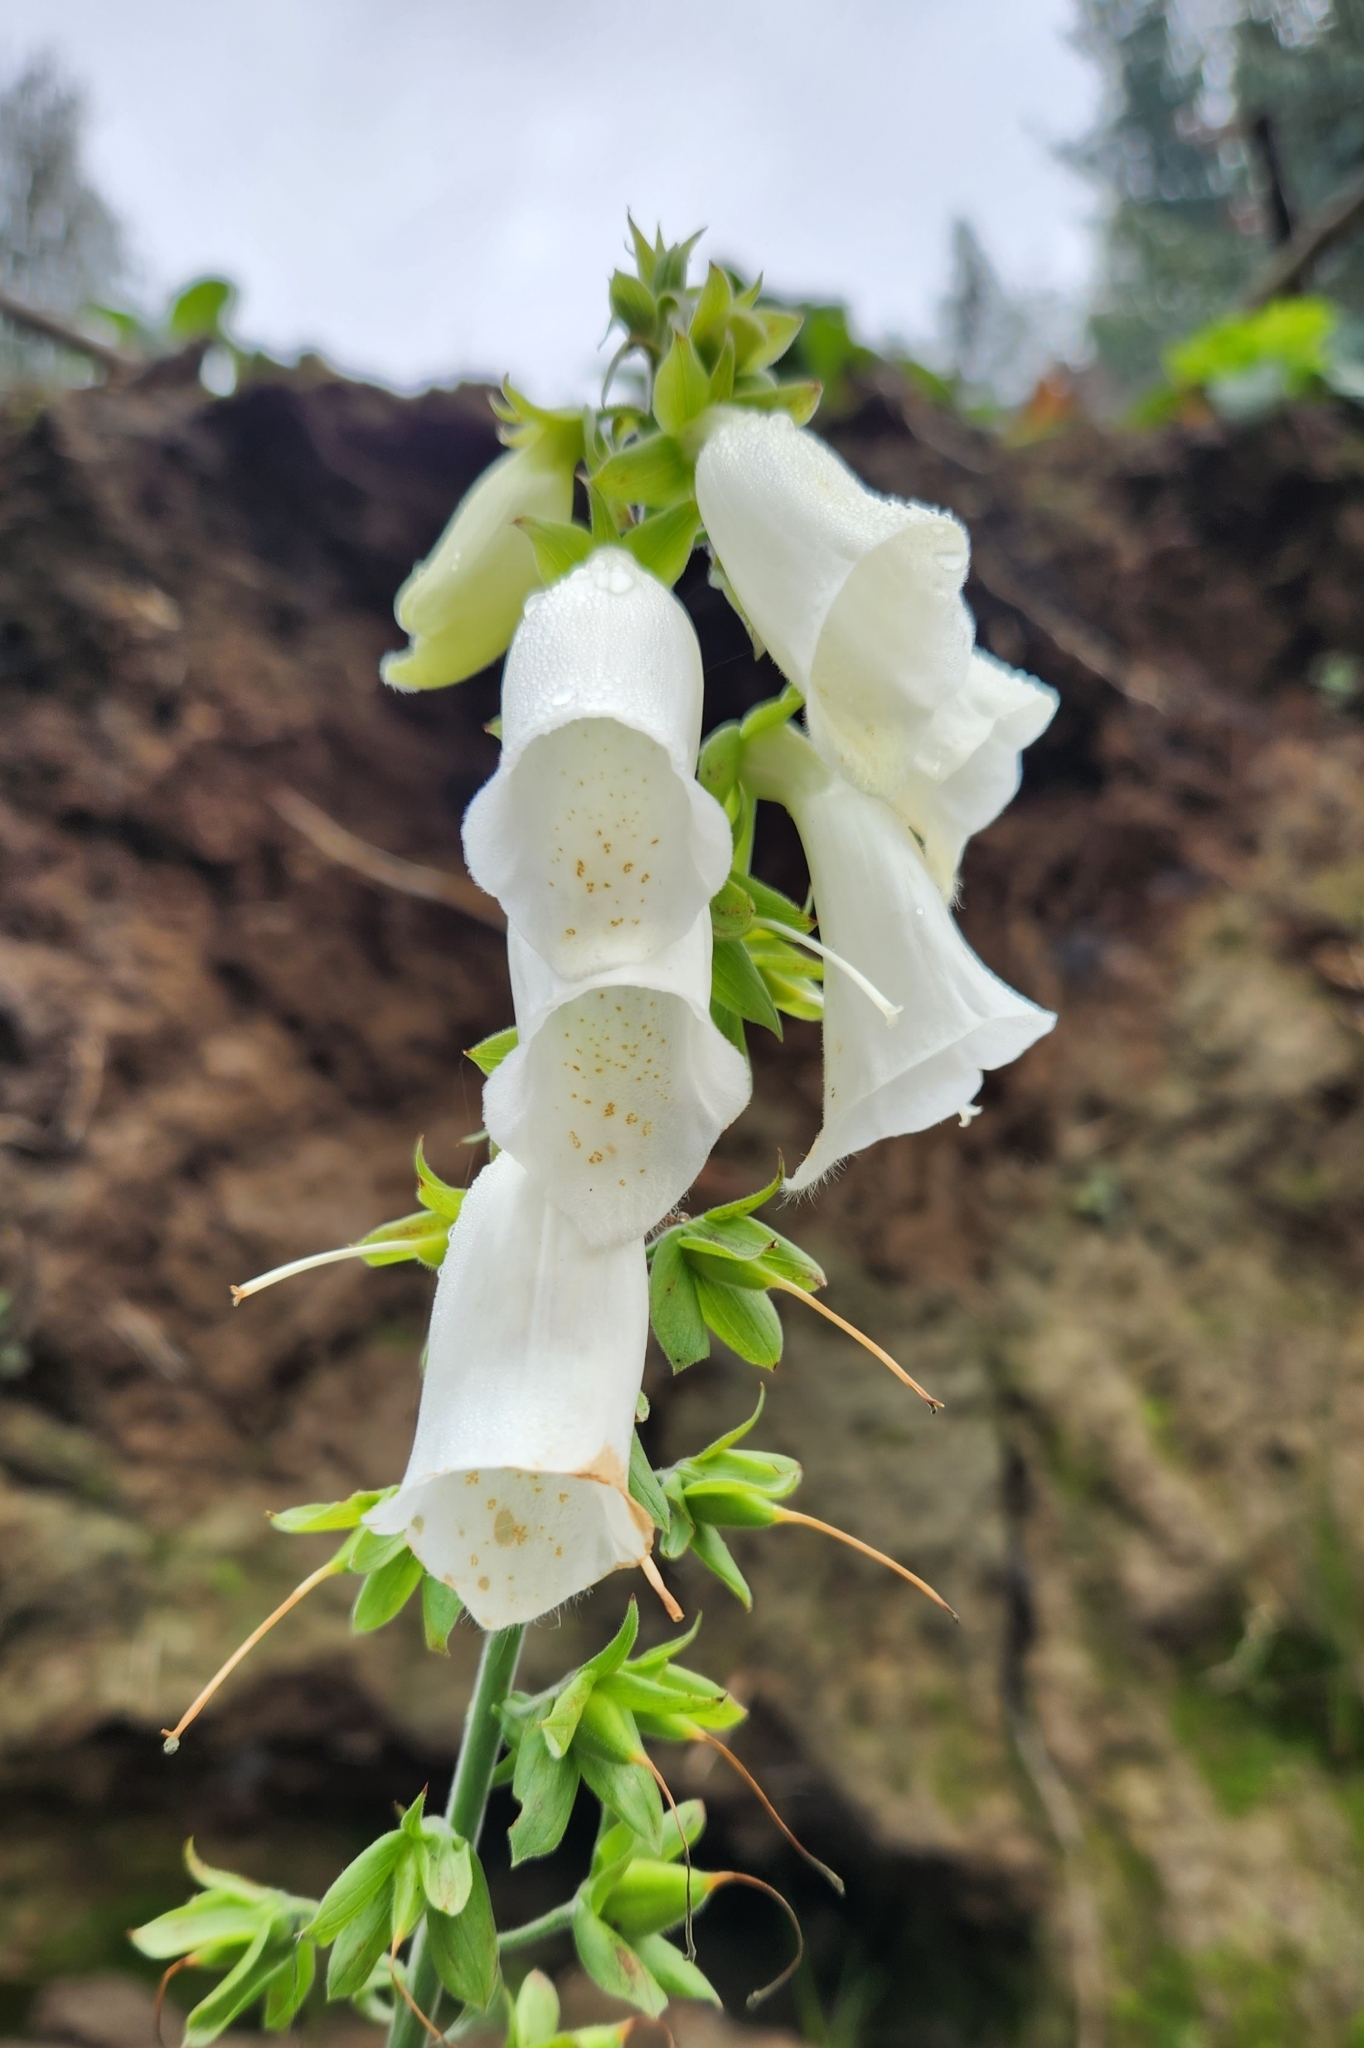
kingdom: Plantae
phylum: Tracheophyta
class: Magnoliopsida
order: Lamiales
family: Plantaginaceae
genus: Digitalis
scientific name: Digitalis purpurea
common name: Foxglove
